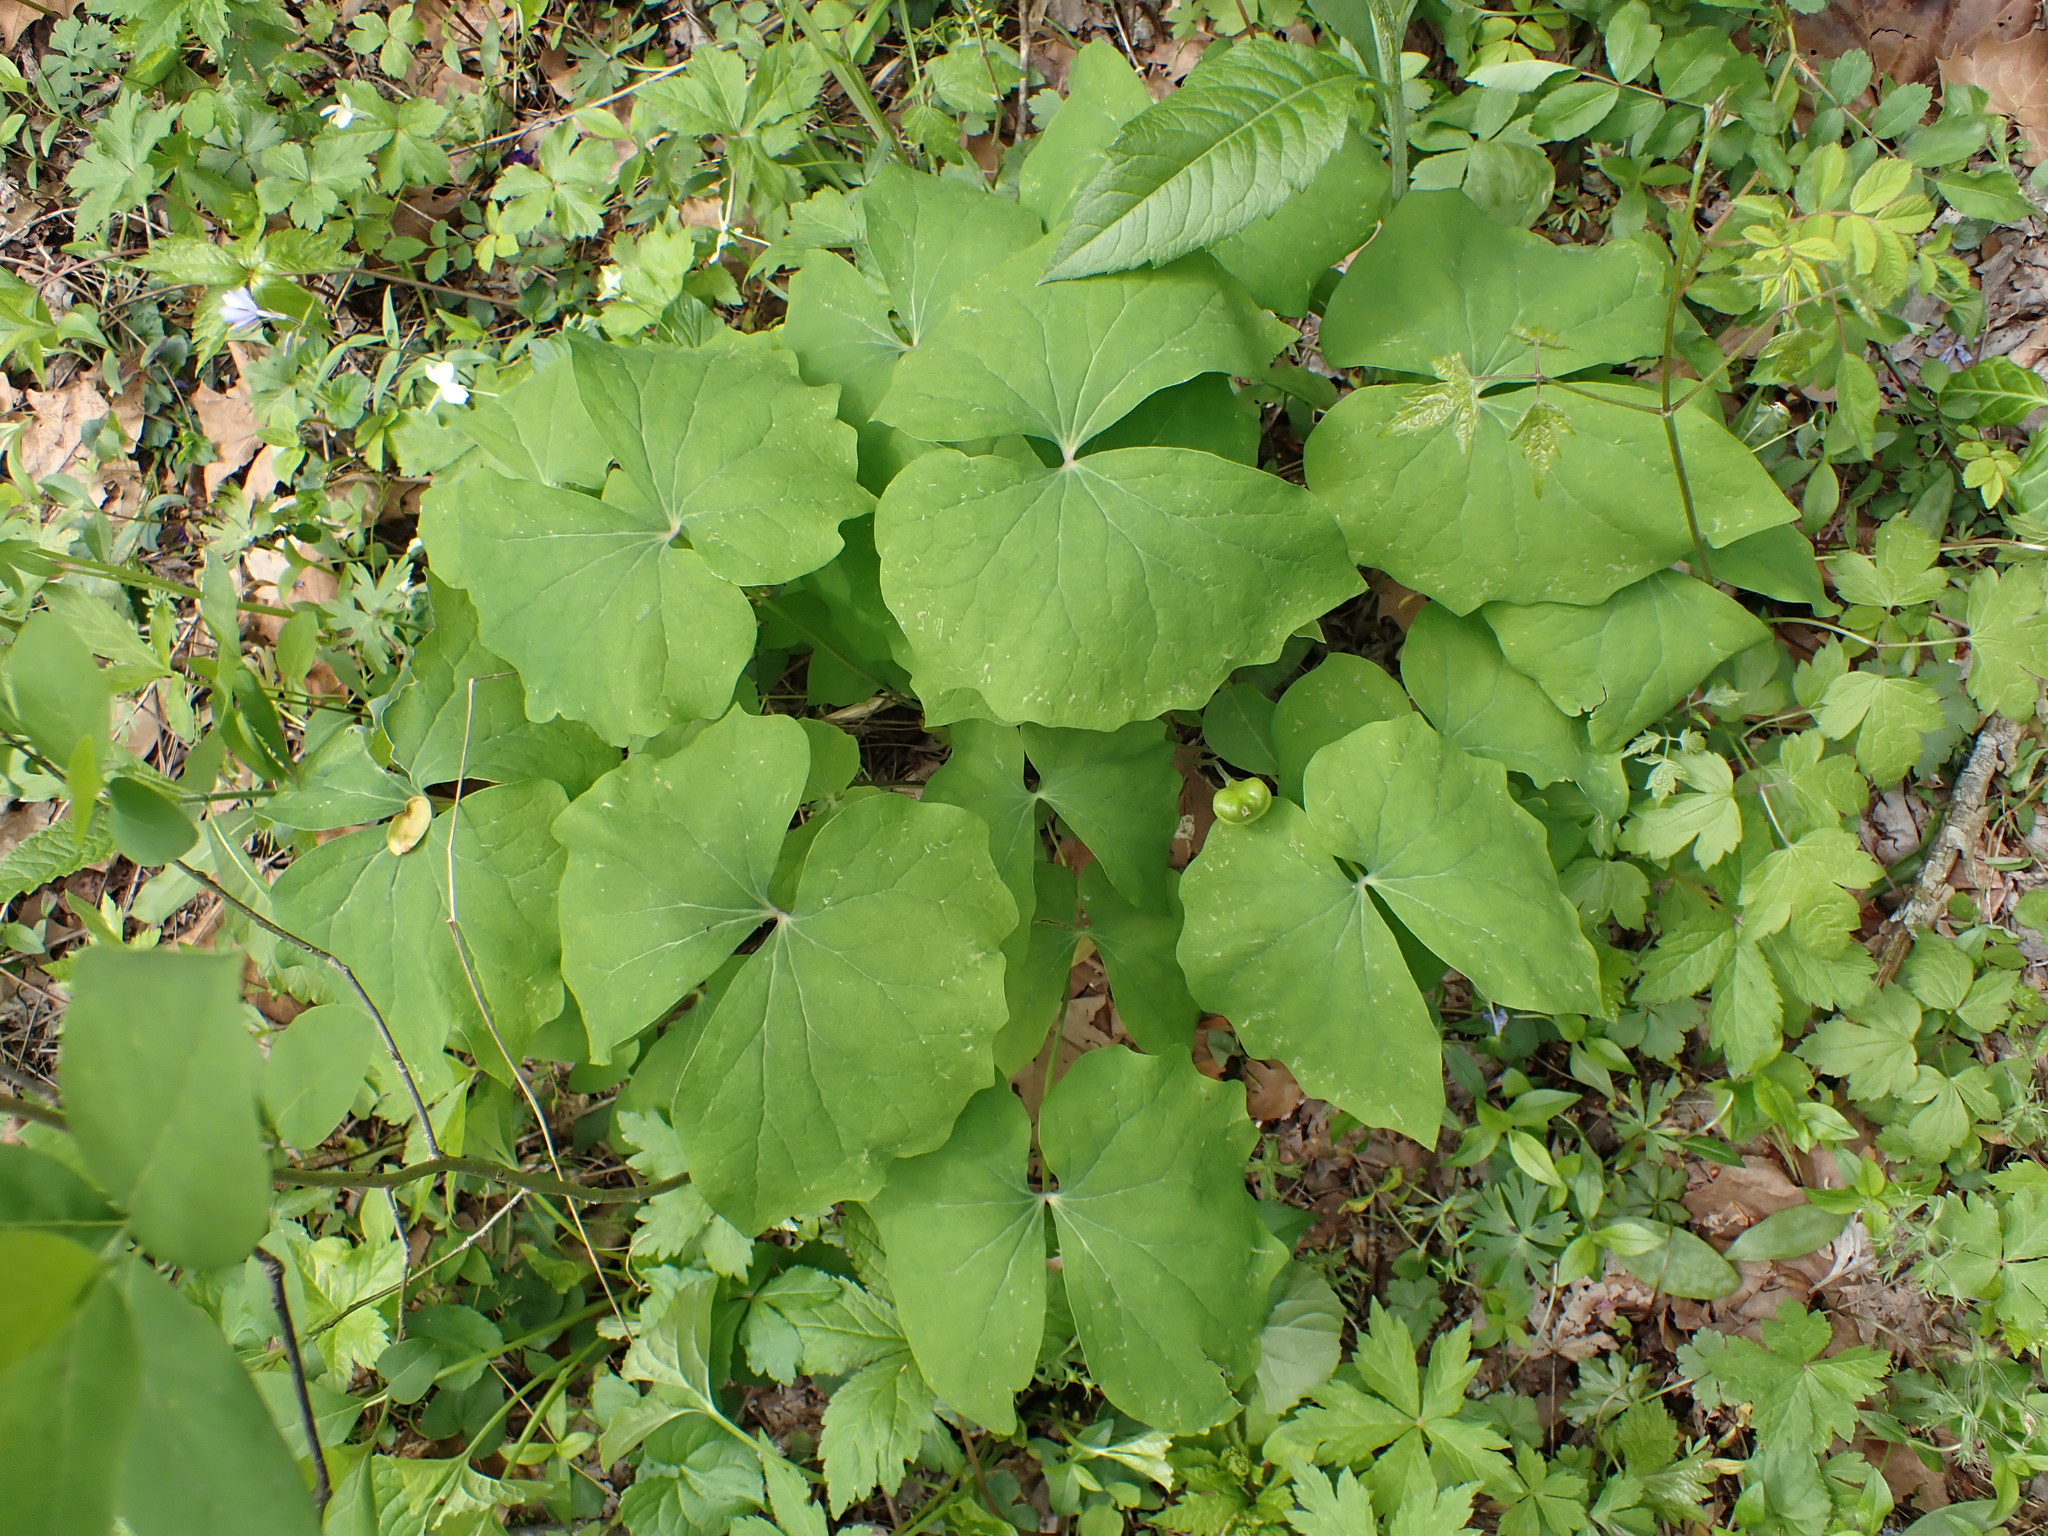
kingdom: Plantae
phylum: Tracheophyta
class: Magnoliopsida
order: Ranunculales
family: Berberidaceae
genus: Jeffersonia
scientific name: Jeffersonia diphylla
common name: Rheumatism-root
